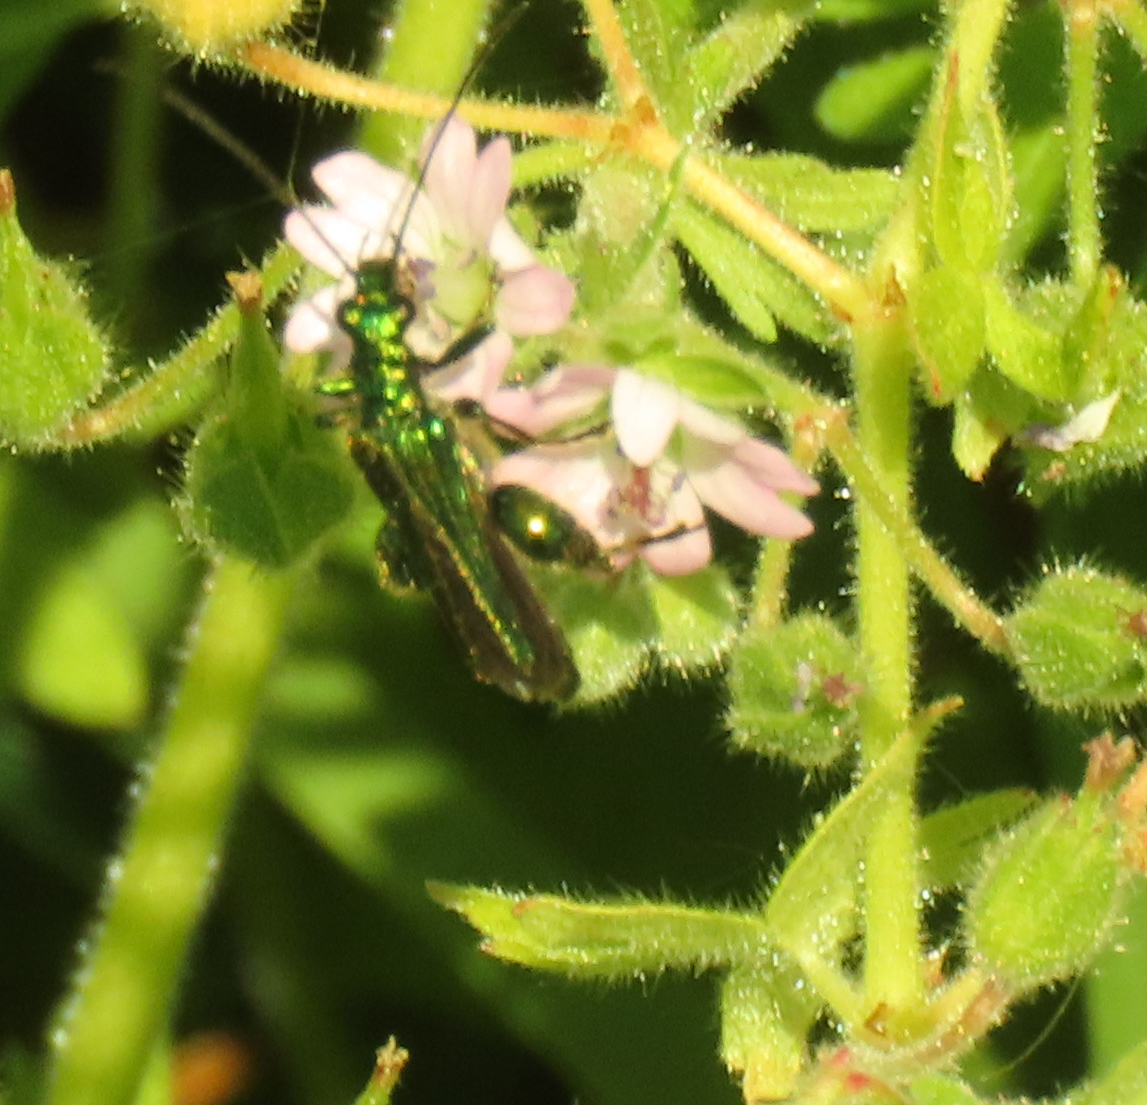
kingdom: Animalia
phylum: Arthropoda
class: Insecta
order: Coleoptera
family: Oedemeridae
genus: Oedemera
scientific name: Oedemera nobilis
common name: Swollen-thighed beetle
